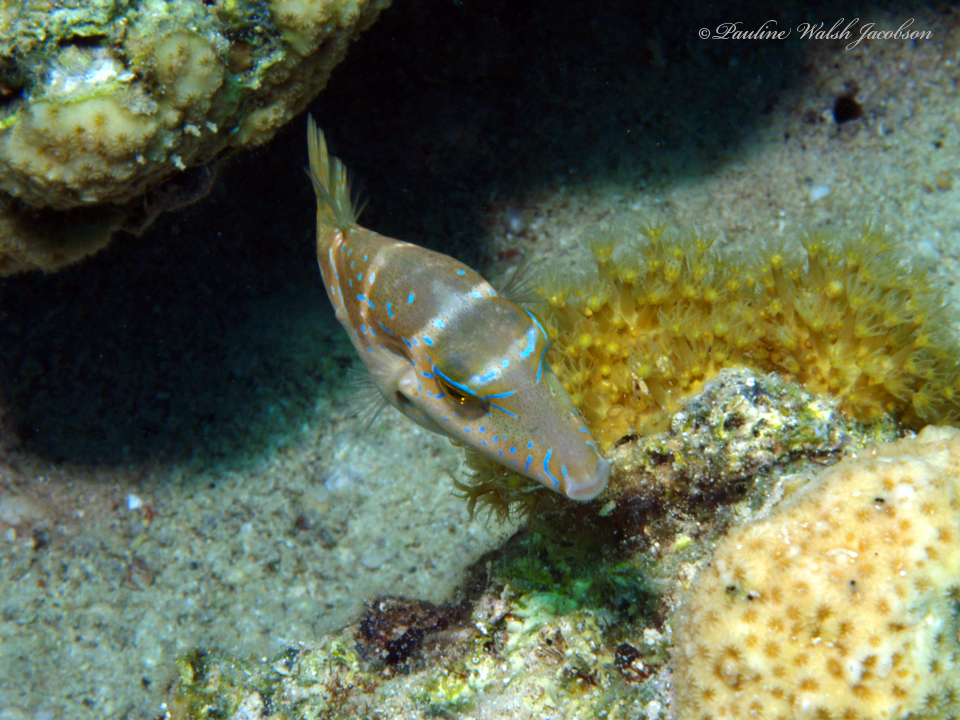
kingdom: Animalia
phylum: Chordata
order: Tetraodontiformes
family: Tetraodontidae
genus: Canthigaster
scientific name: Canthigaster cyanospilota
